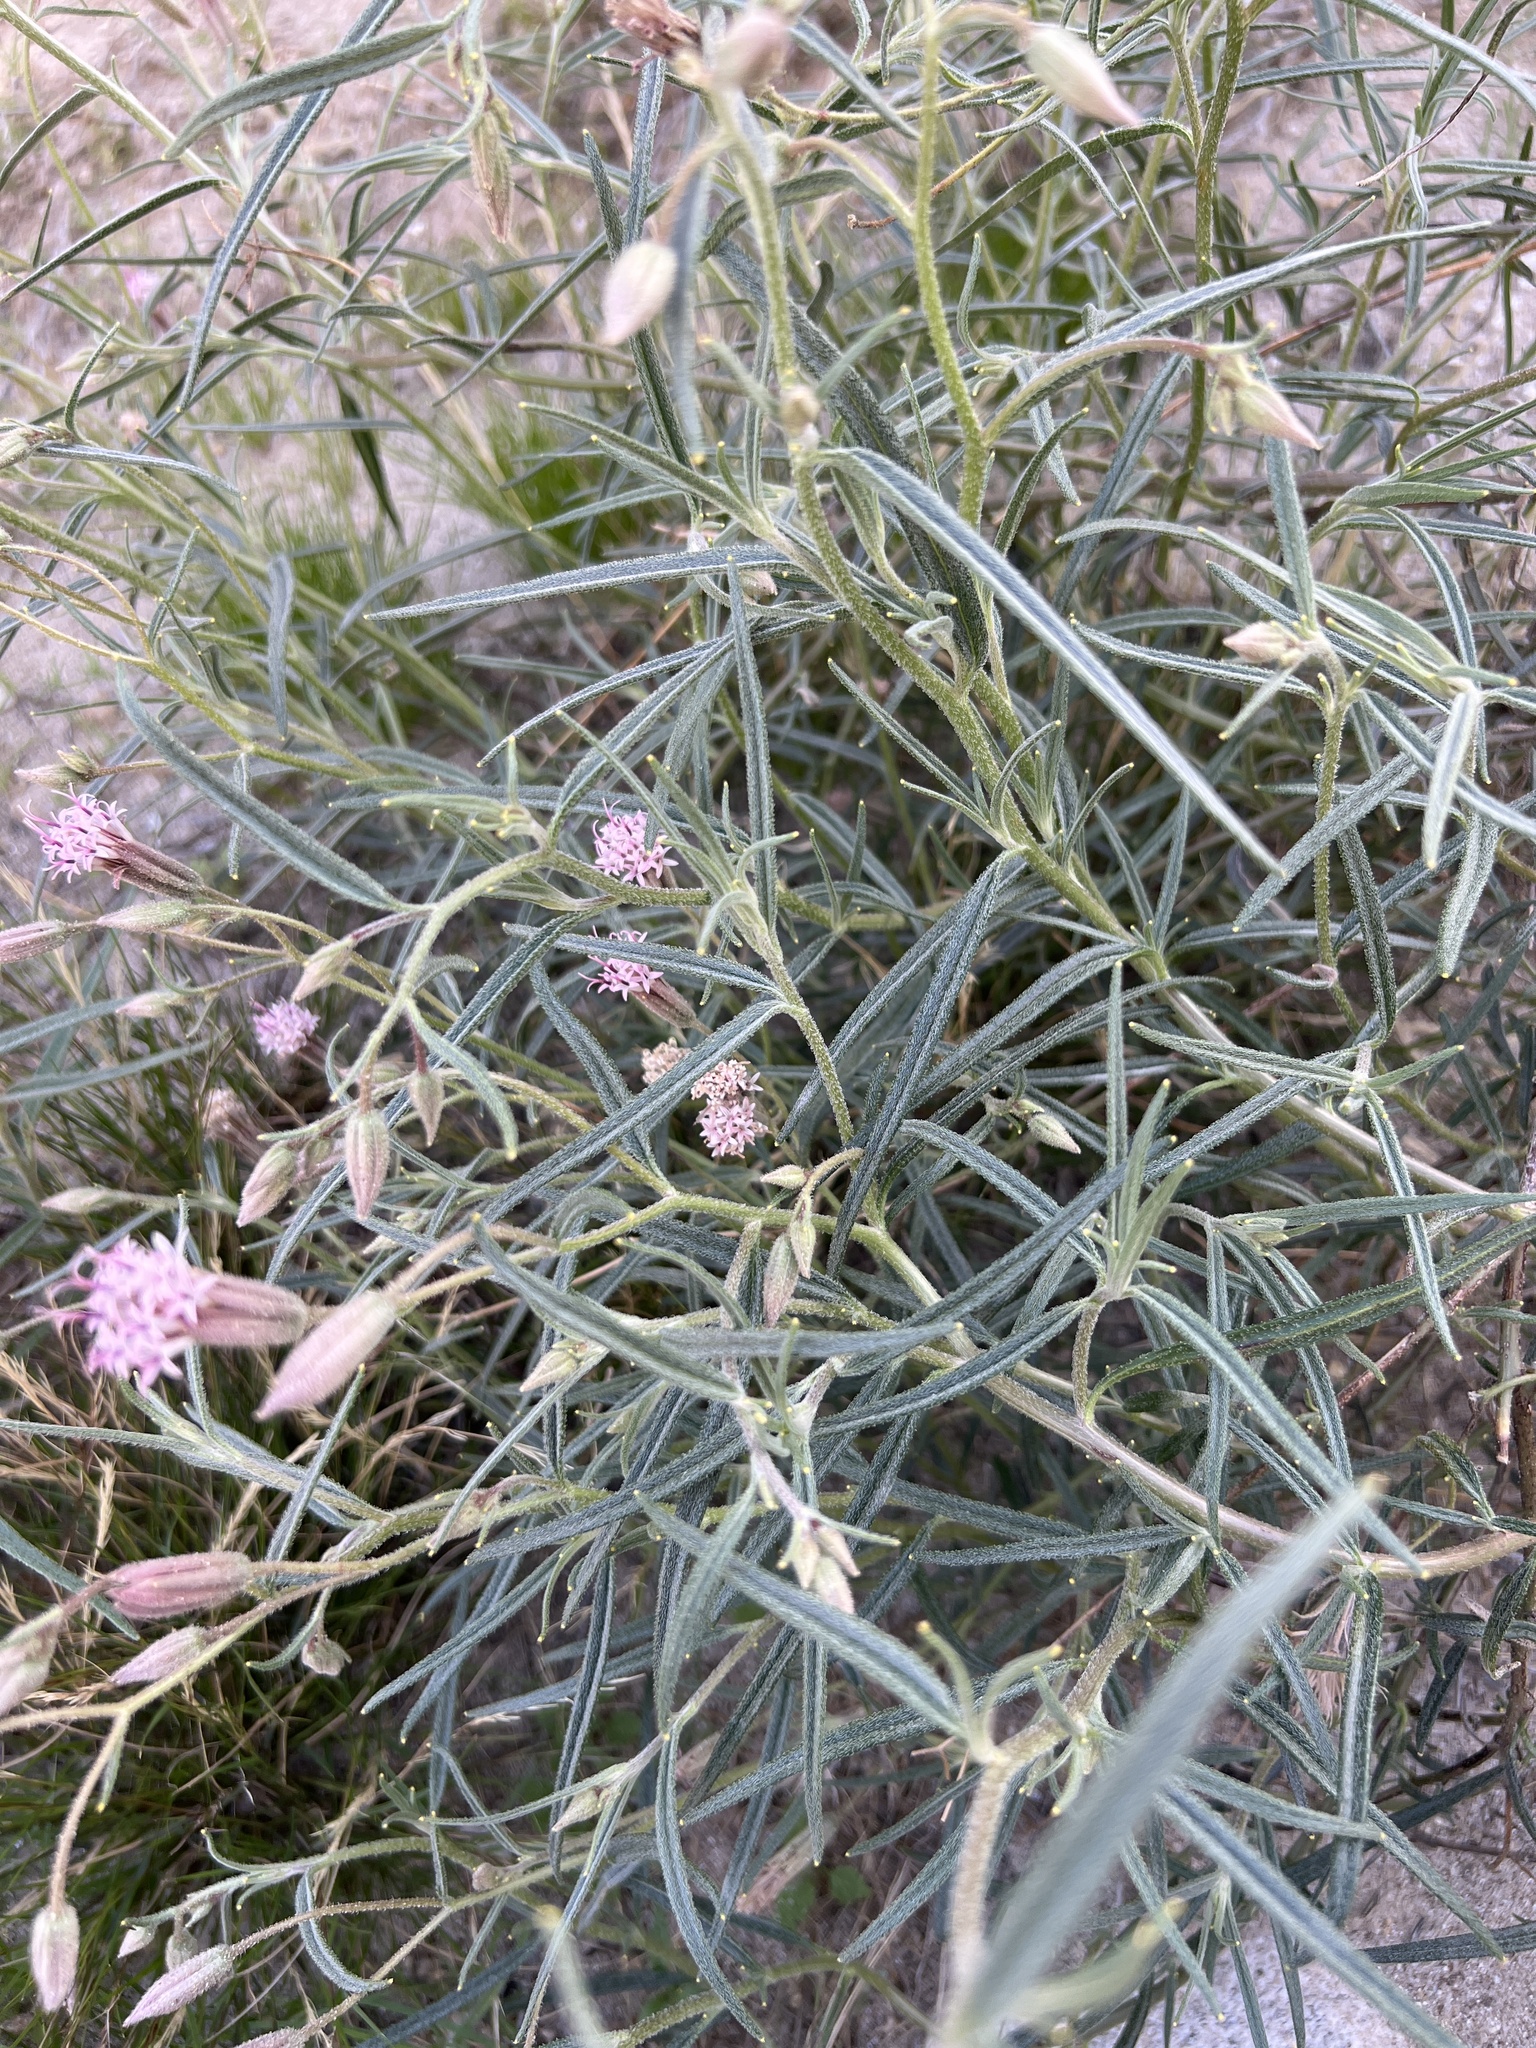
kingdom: Plantae
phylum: Tracheophyta
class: Magnoliopsida
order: Asterales
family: Asteraceae
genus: Palafoxia
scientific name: Palafoxia arida
